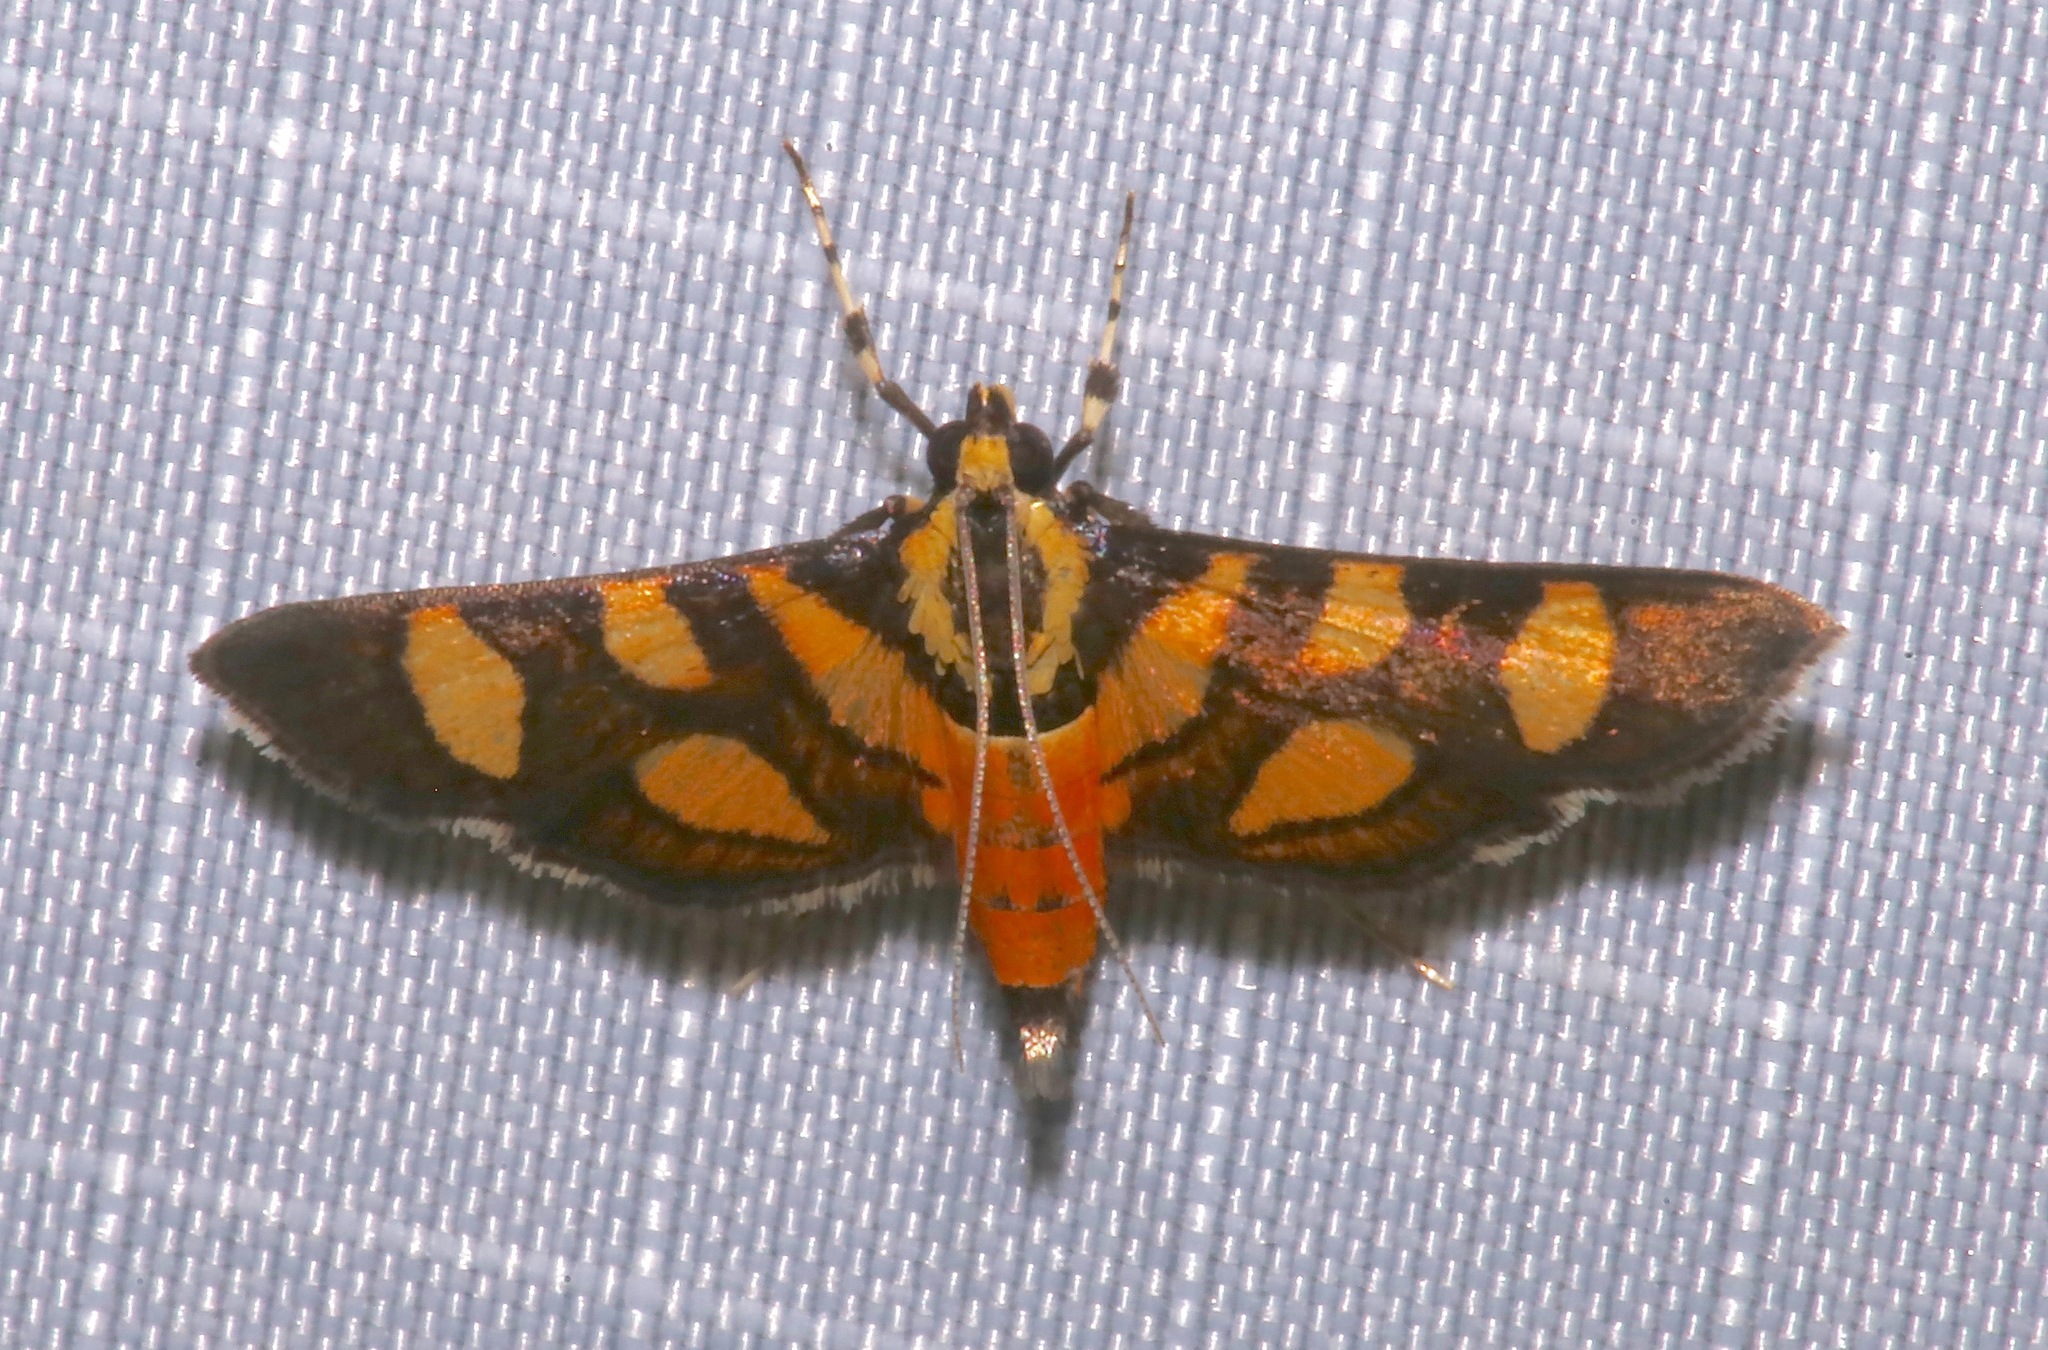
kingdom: Animalia
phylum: Arthropoda
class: Insecta
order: Lepidoptera
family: Crambidae
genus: Syngamia
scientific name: Syngamia florella
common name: Orange-spotted flower moth
